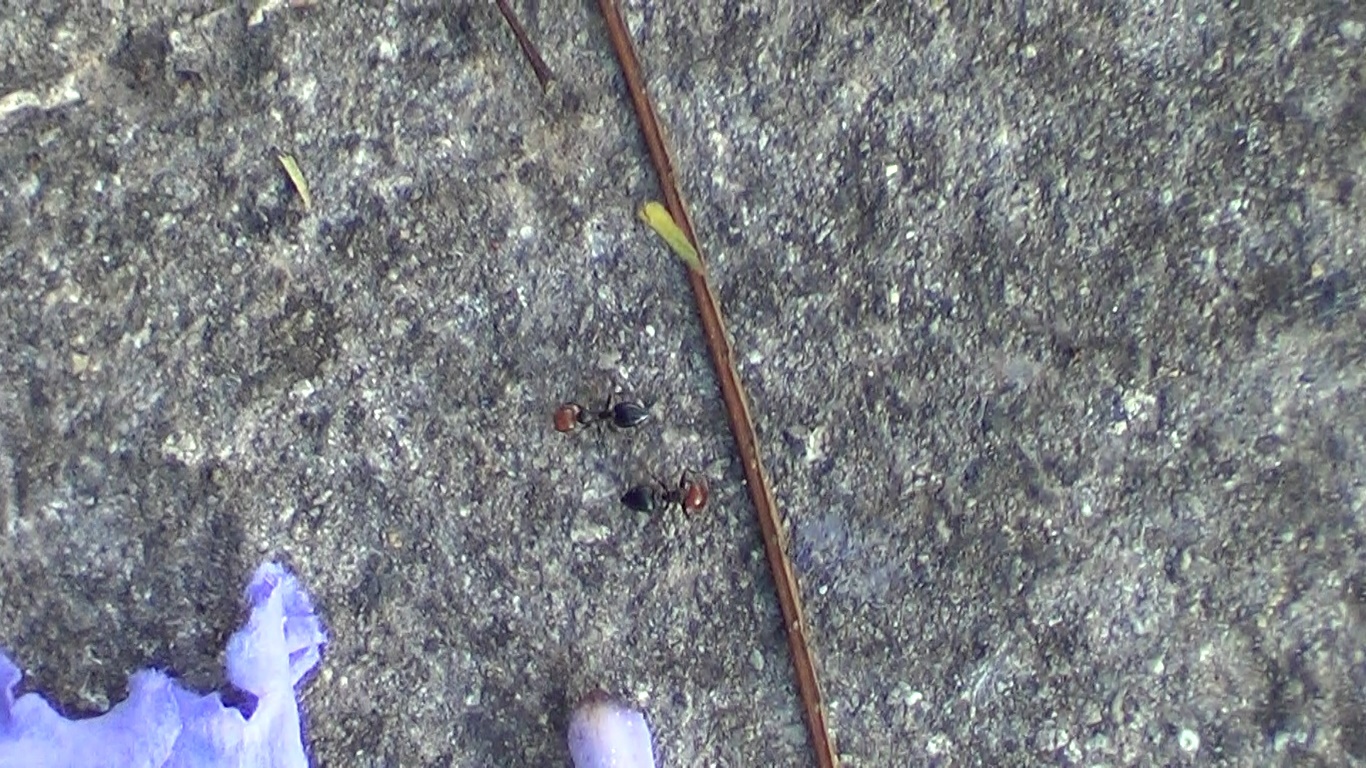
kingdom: Animalia
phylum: Arthropoda
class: Insecta
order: Hymenoptera
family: Formicidae
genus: Crematogaster
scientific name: Crematogaster scutellaris
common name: Fourmi du liège
